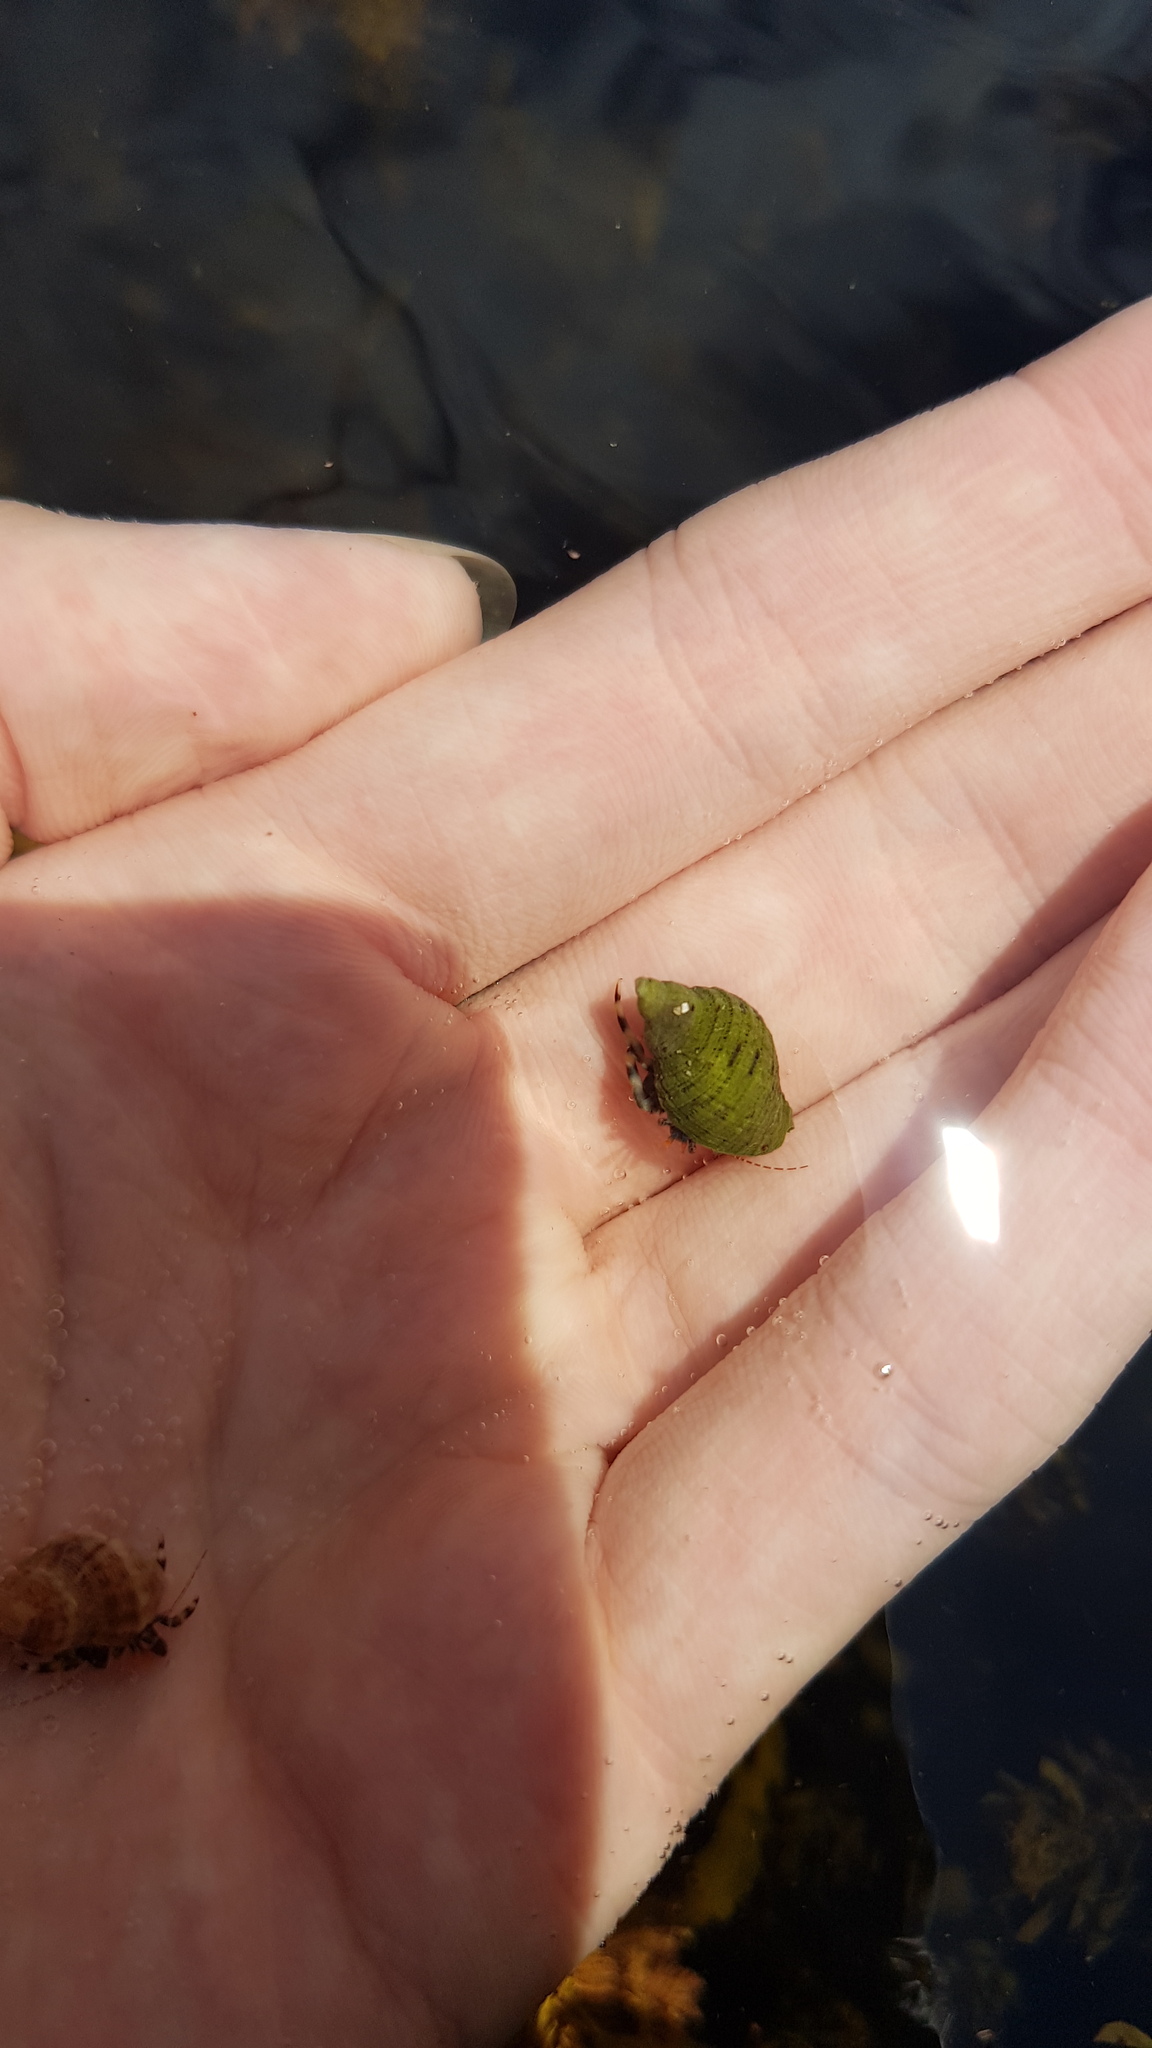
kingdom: Animalia
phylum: Arthropoda
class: Malacostraca
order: Decapoda
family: Paguridae
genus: Pagurixus
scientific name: Pagurixus jerviensis
